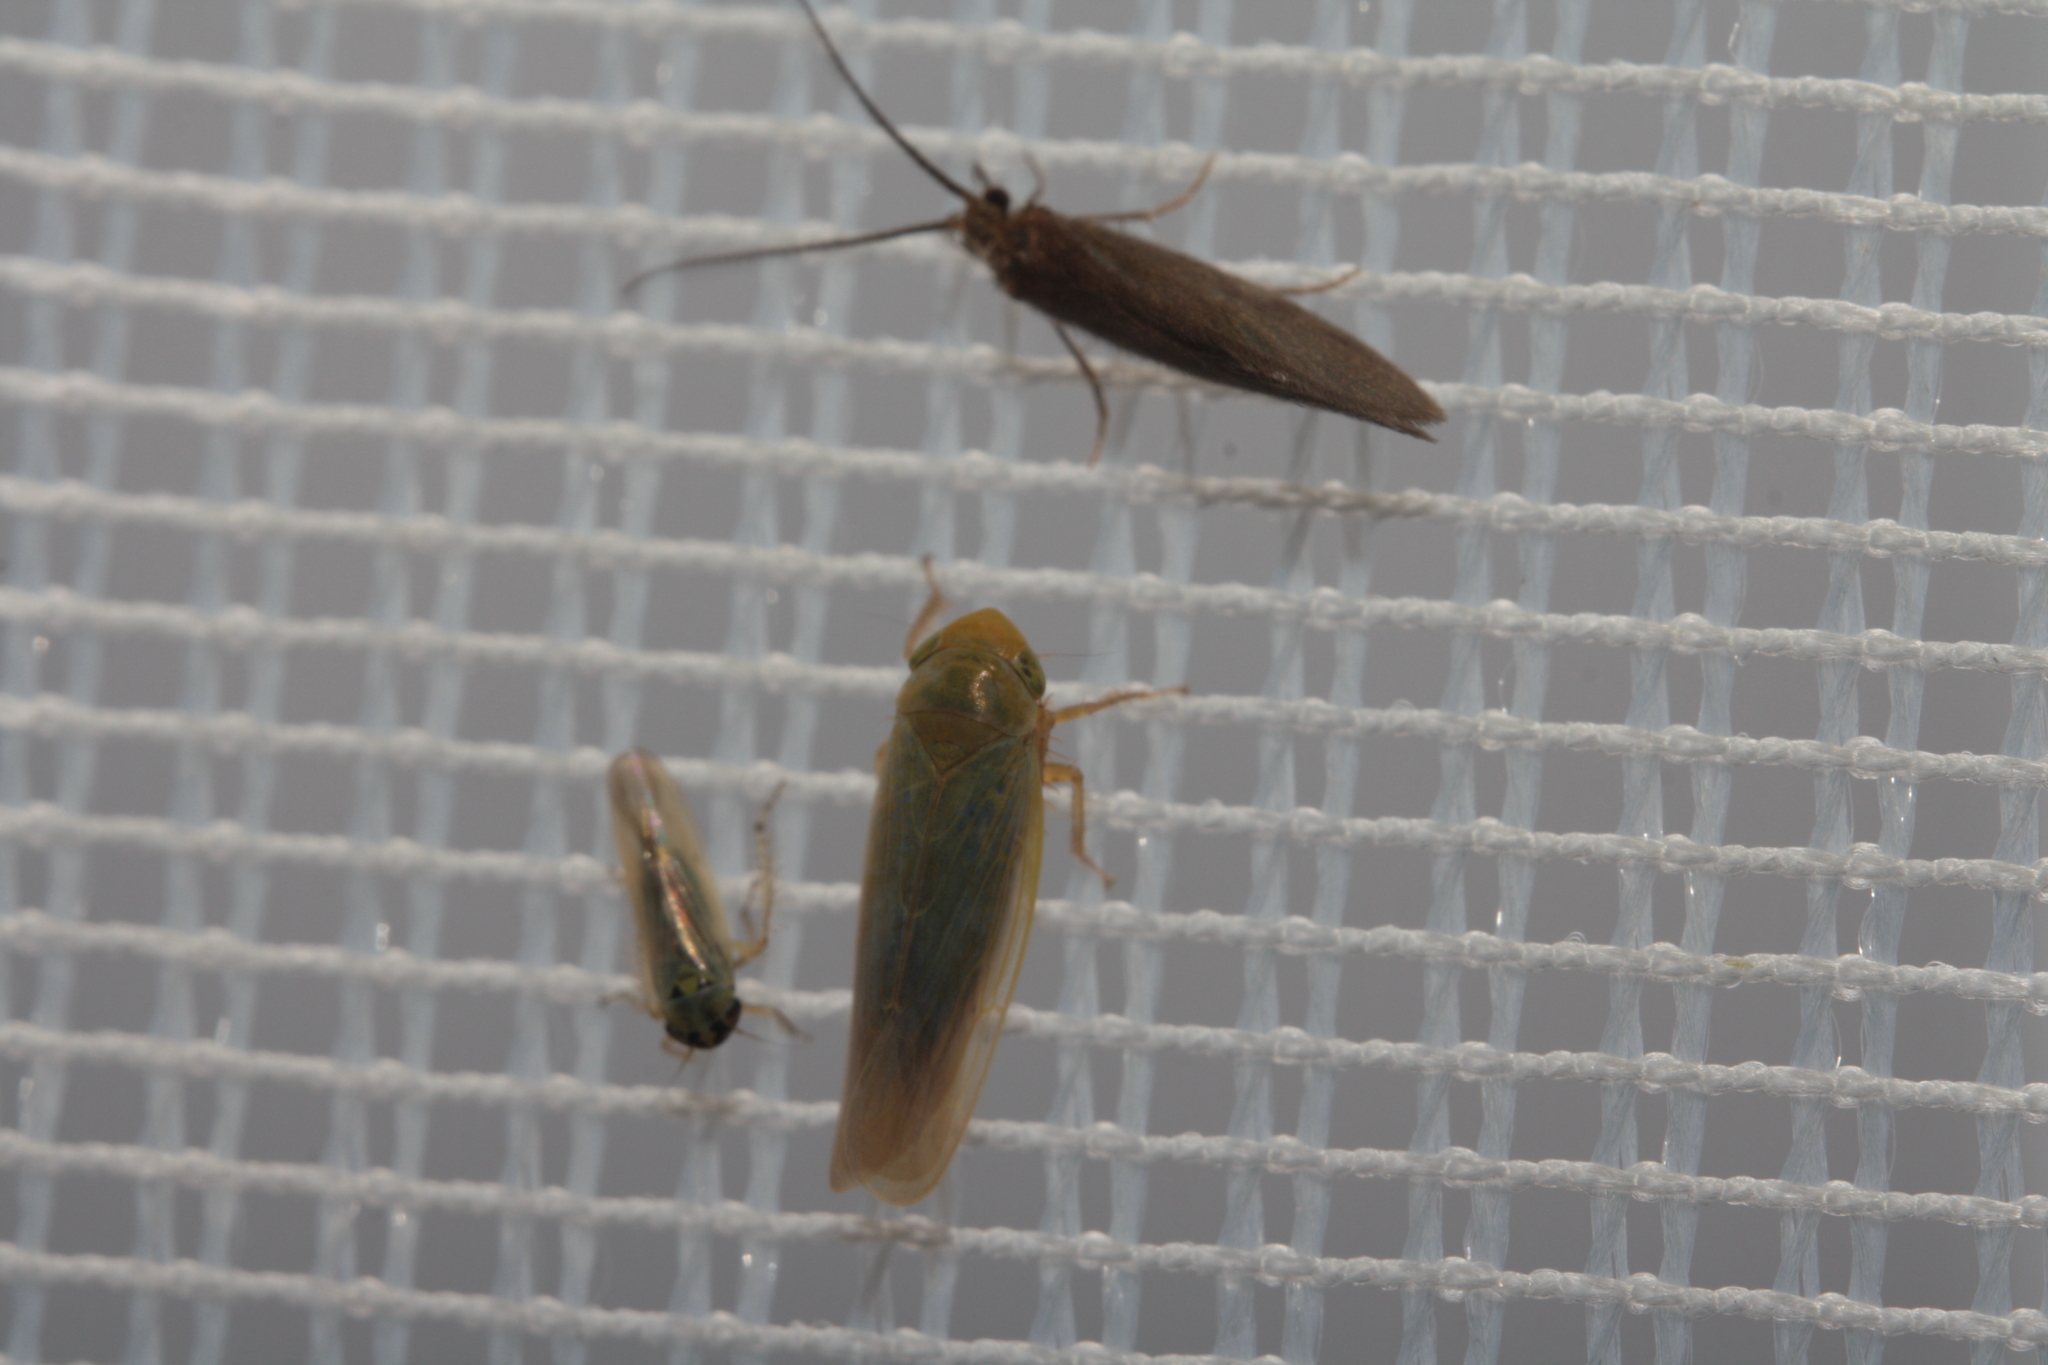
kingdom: Animalia
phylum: Arthropoda
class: Insecta
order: Hemiptera
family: Cicadellidae
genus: Thamnotettix
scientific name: Thamnotettix confinis
